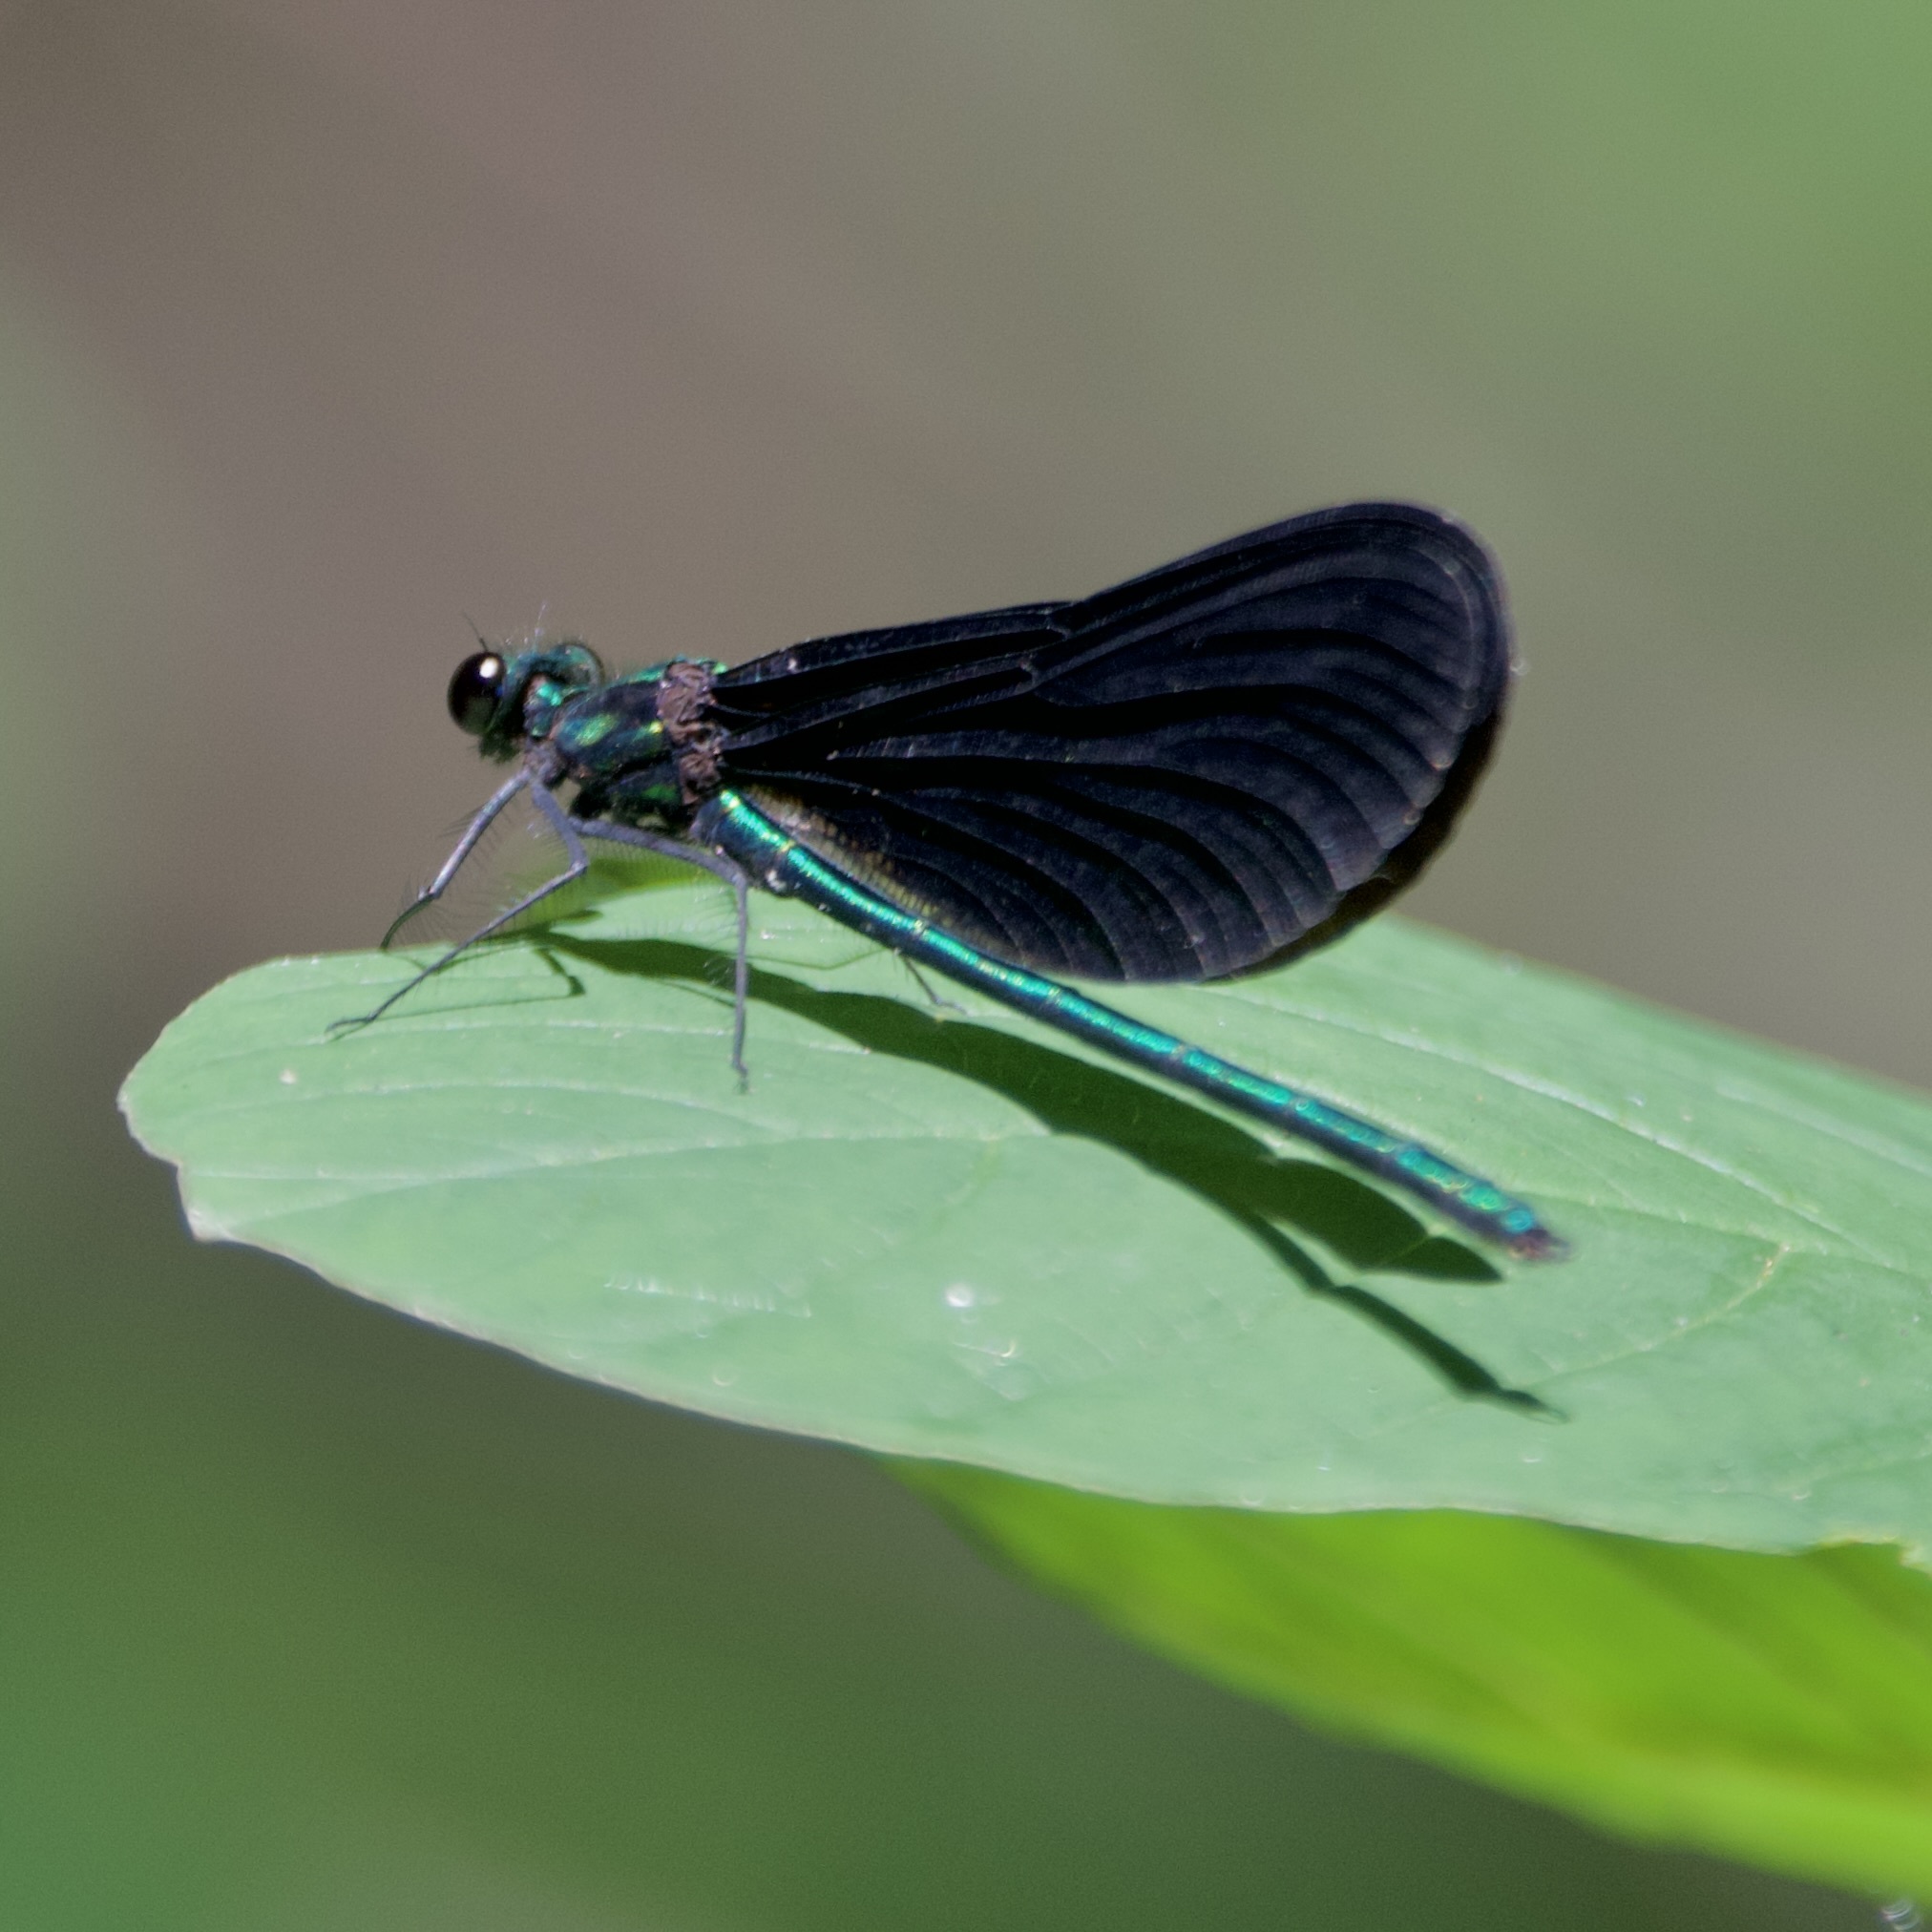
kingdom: Animalia
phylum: Arthropoda
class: Insecta
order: Odonata
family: Calopterygidae
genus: Calopteryx
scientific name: Calopteryx maculata
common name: Ebony jewelwing
